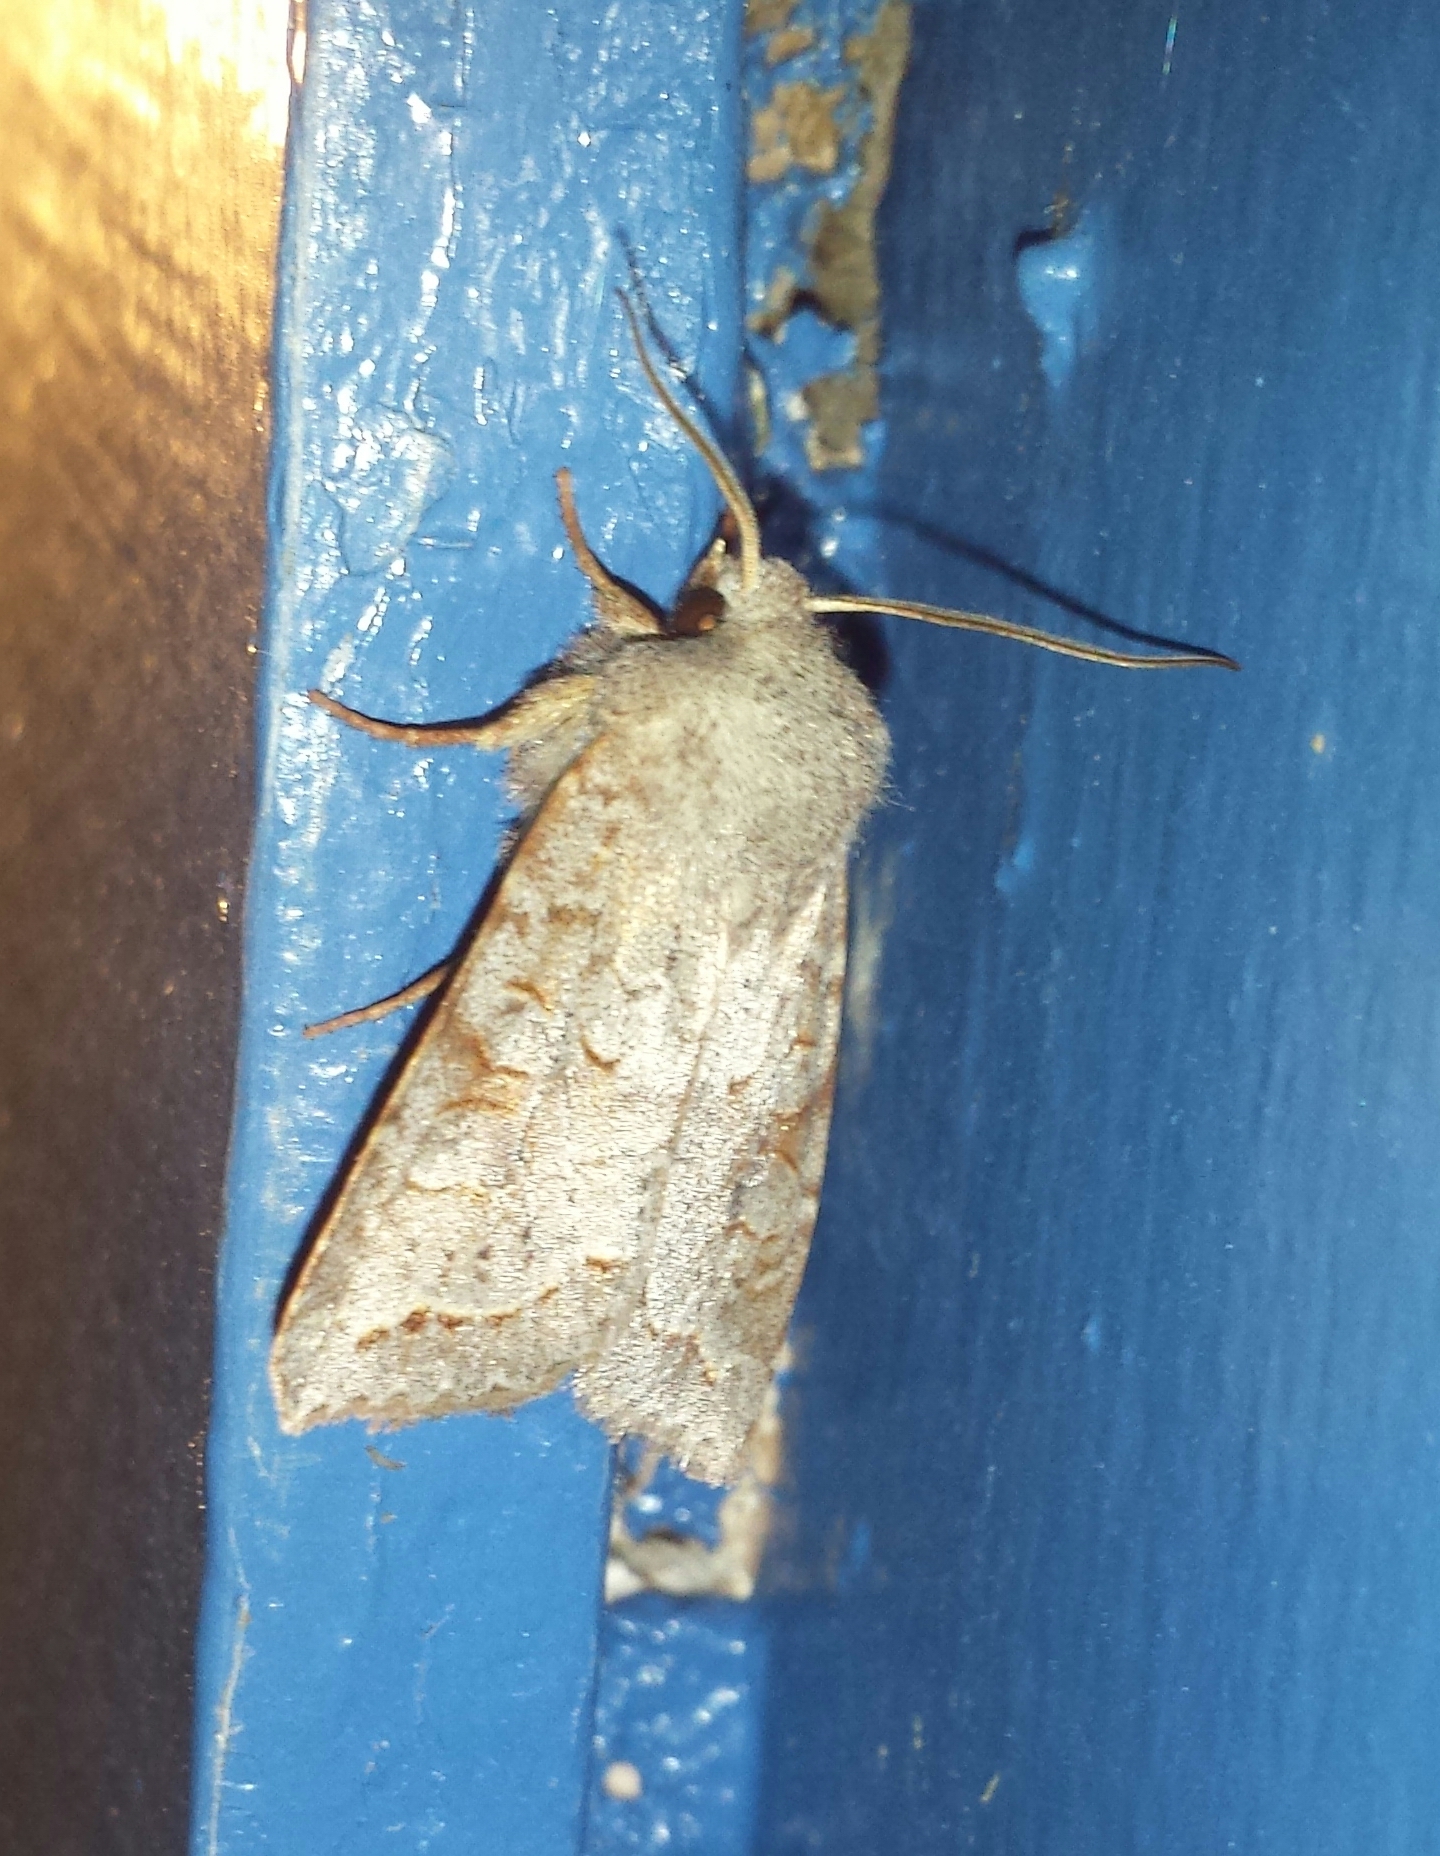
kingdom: Animalia
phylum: Arthropoda
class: Insecta
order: Lepidoptera
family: Noctuidae
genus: Orthosia
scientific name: Orthosia revicta
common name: Rusty whitesided caterpillar
